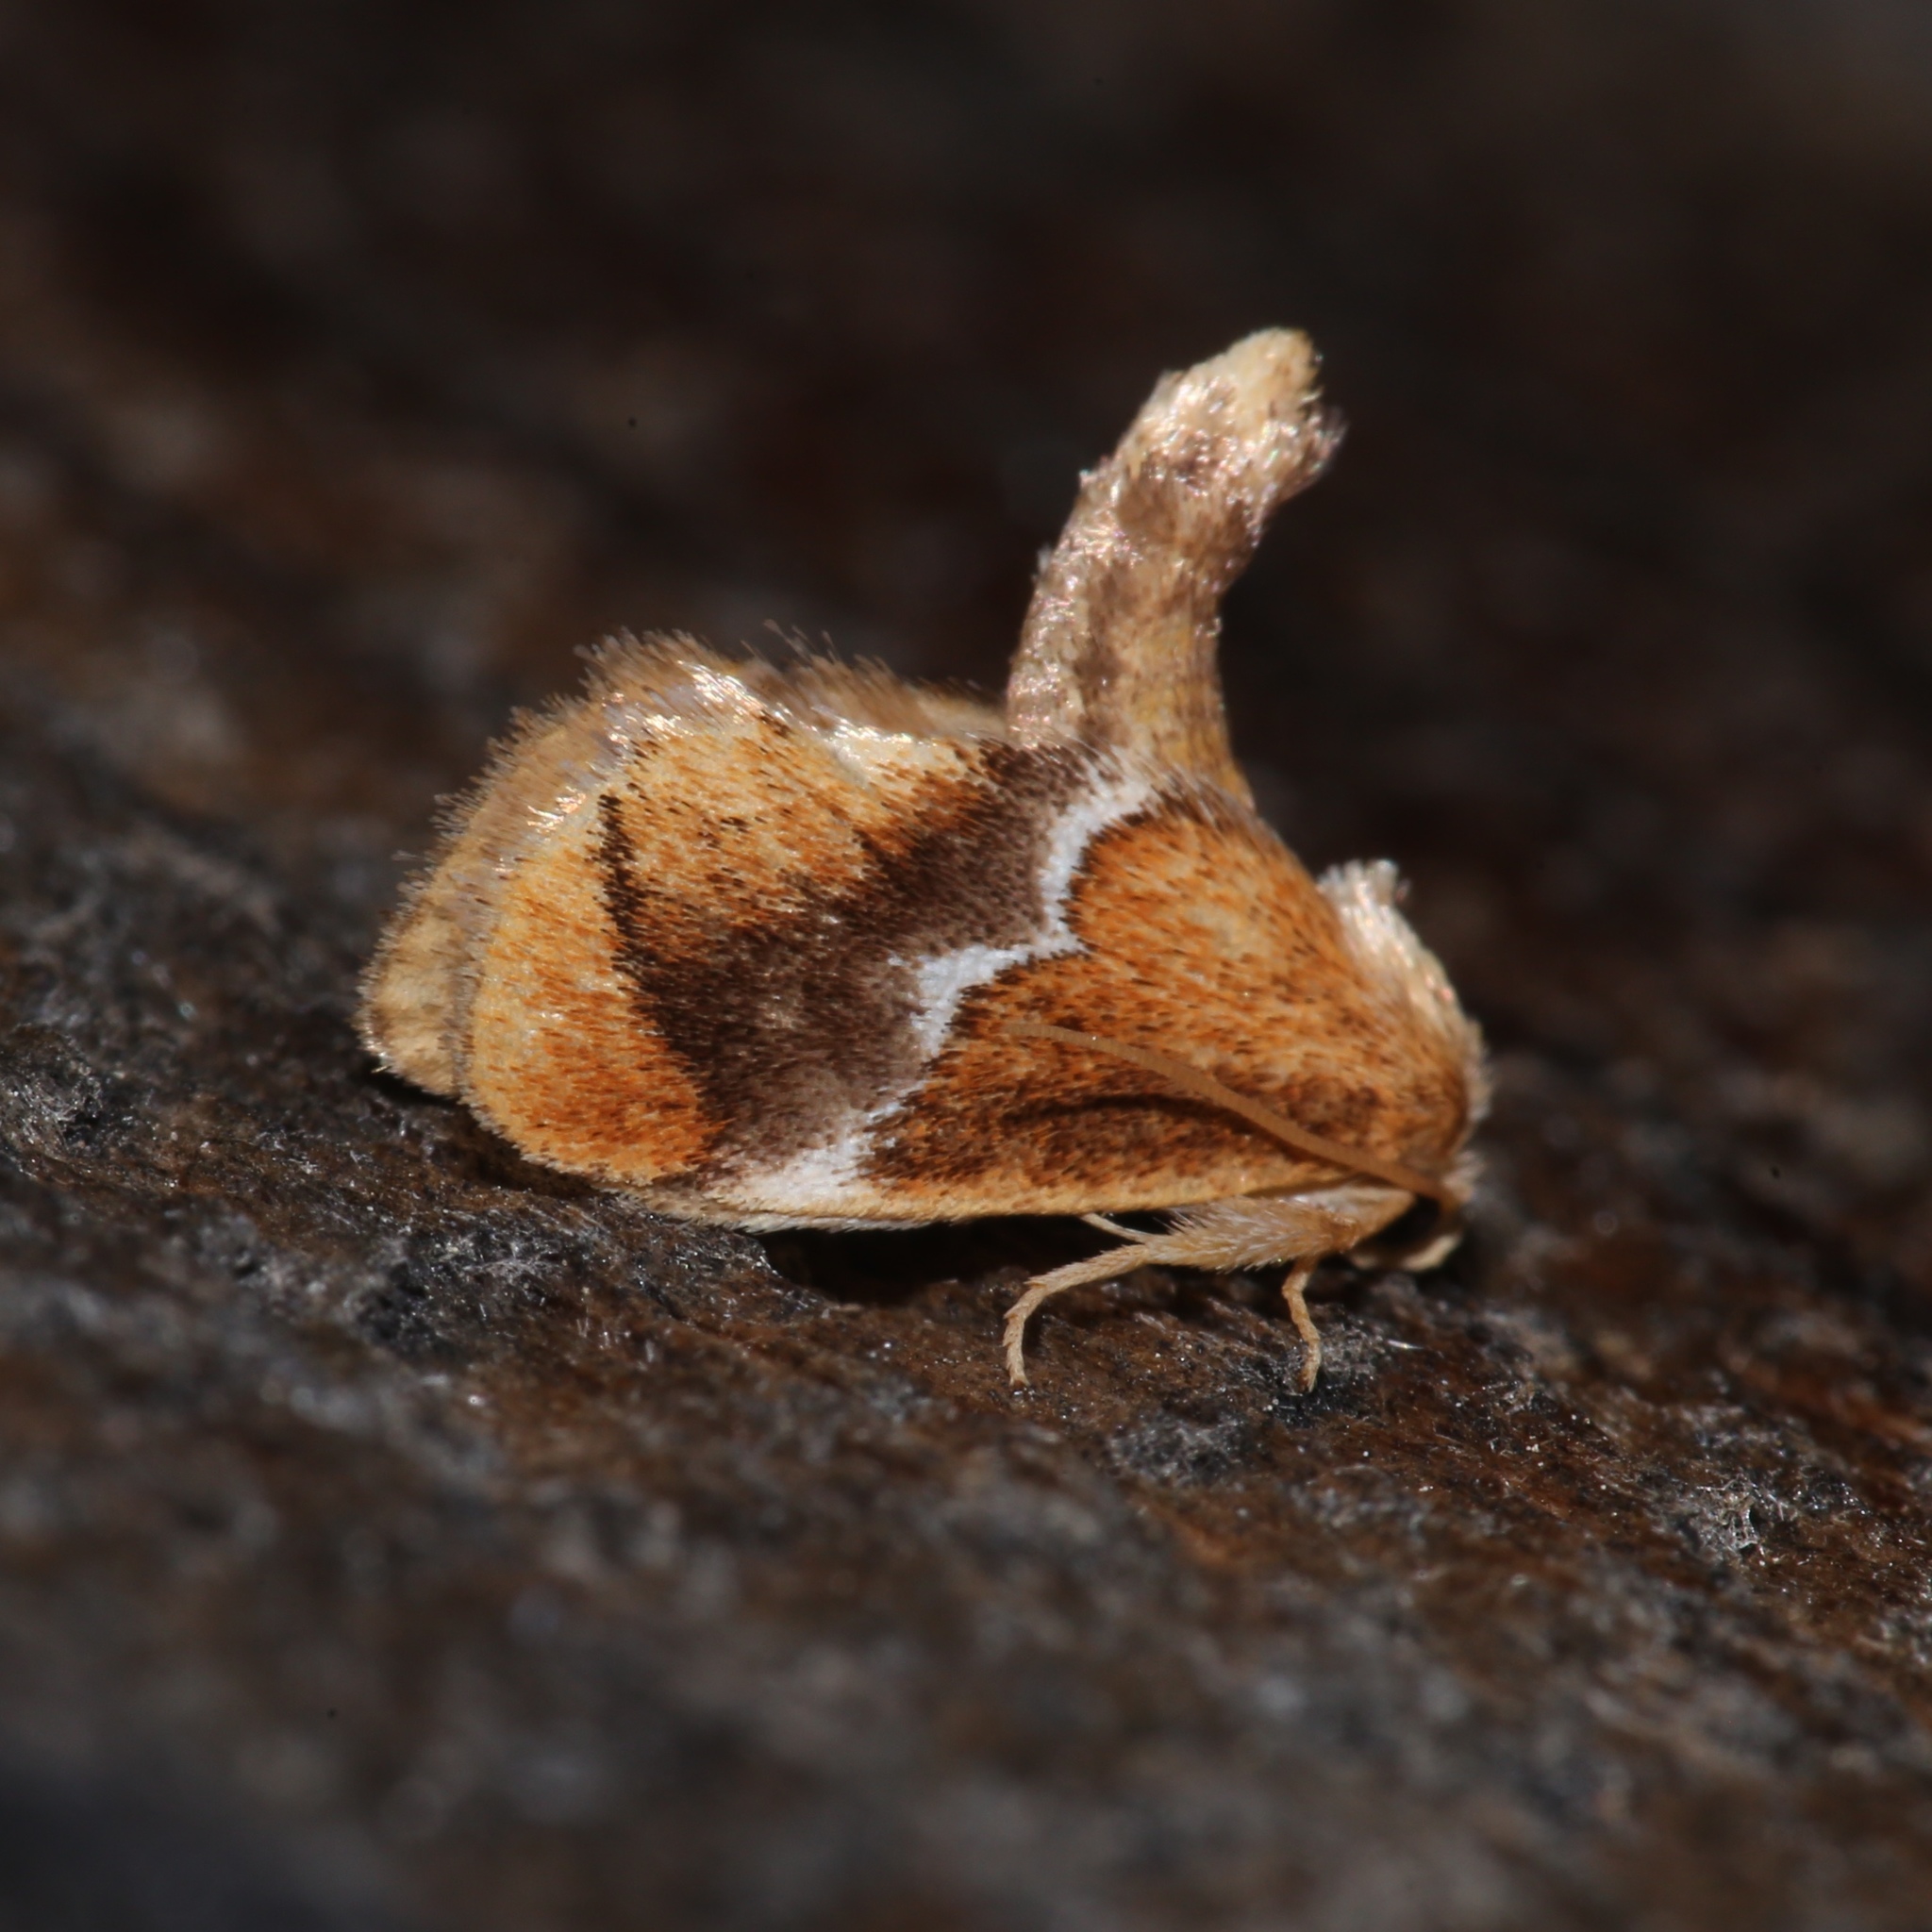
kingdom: Animalia
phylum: Arthropoda
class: Insecta
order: Lepidoptera
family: Limacodidae
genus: Lithacodes
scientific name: Lithacodes fasciola
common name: Yellow-shouldered slug moth
